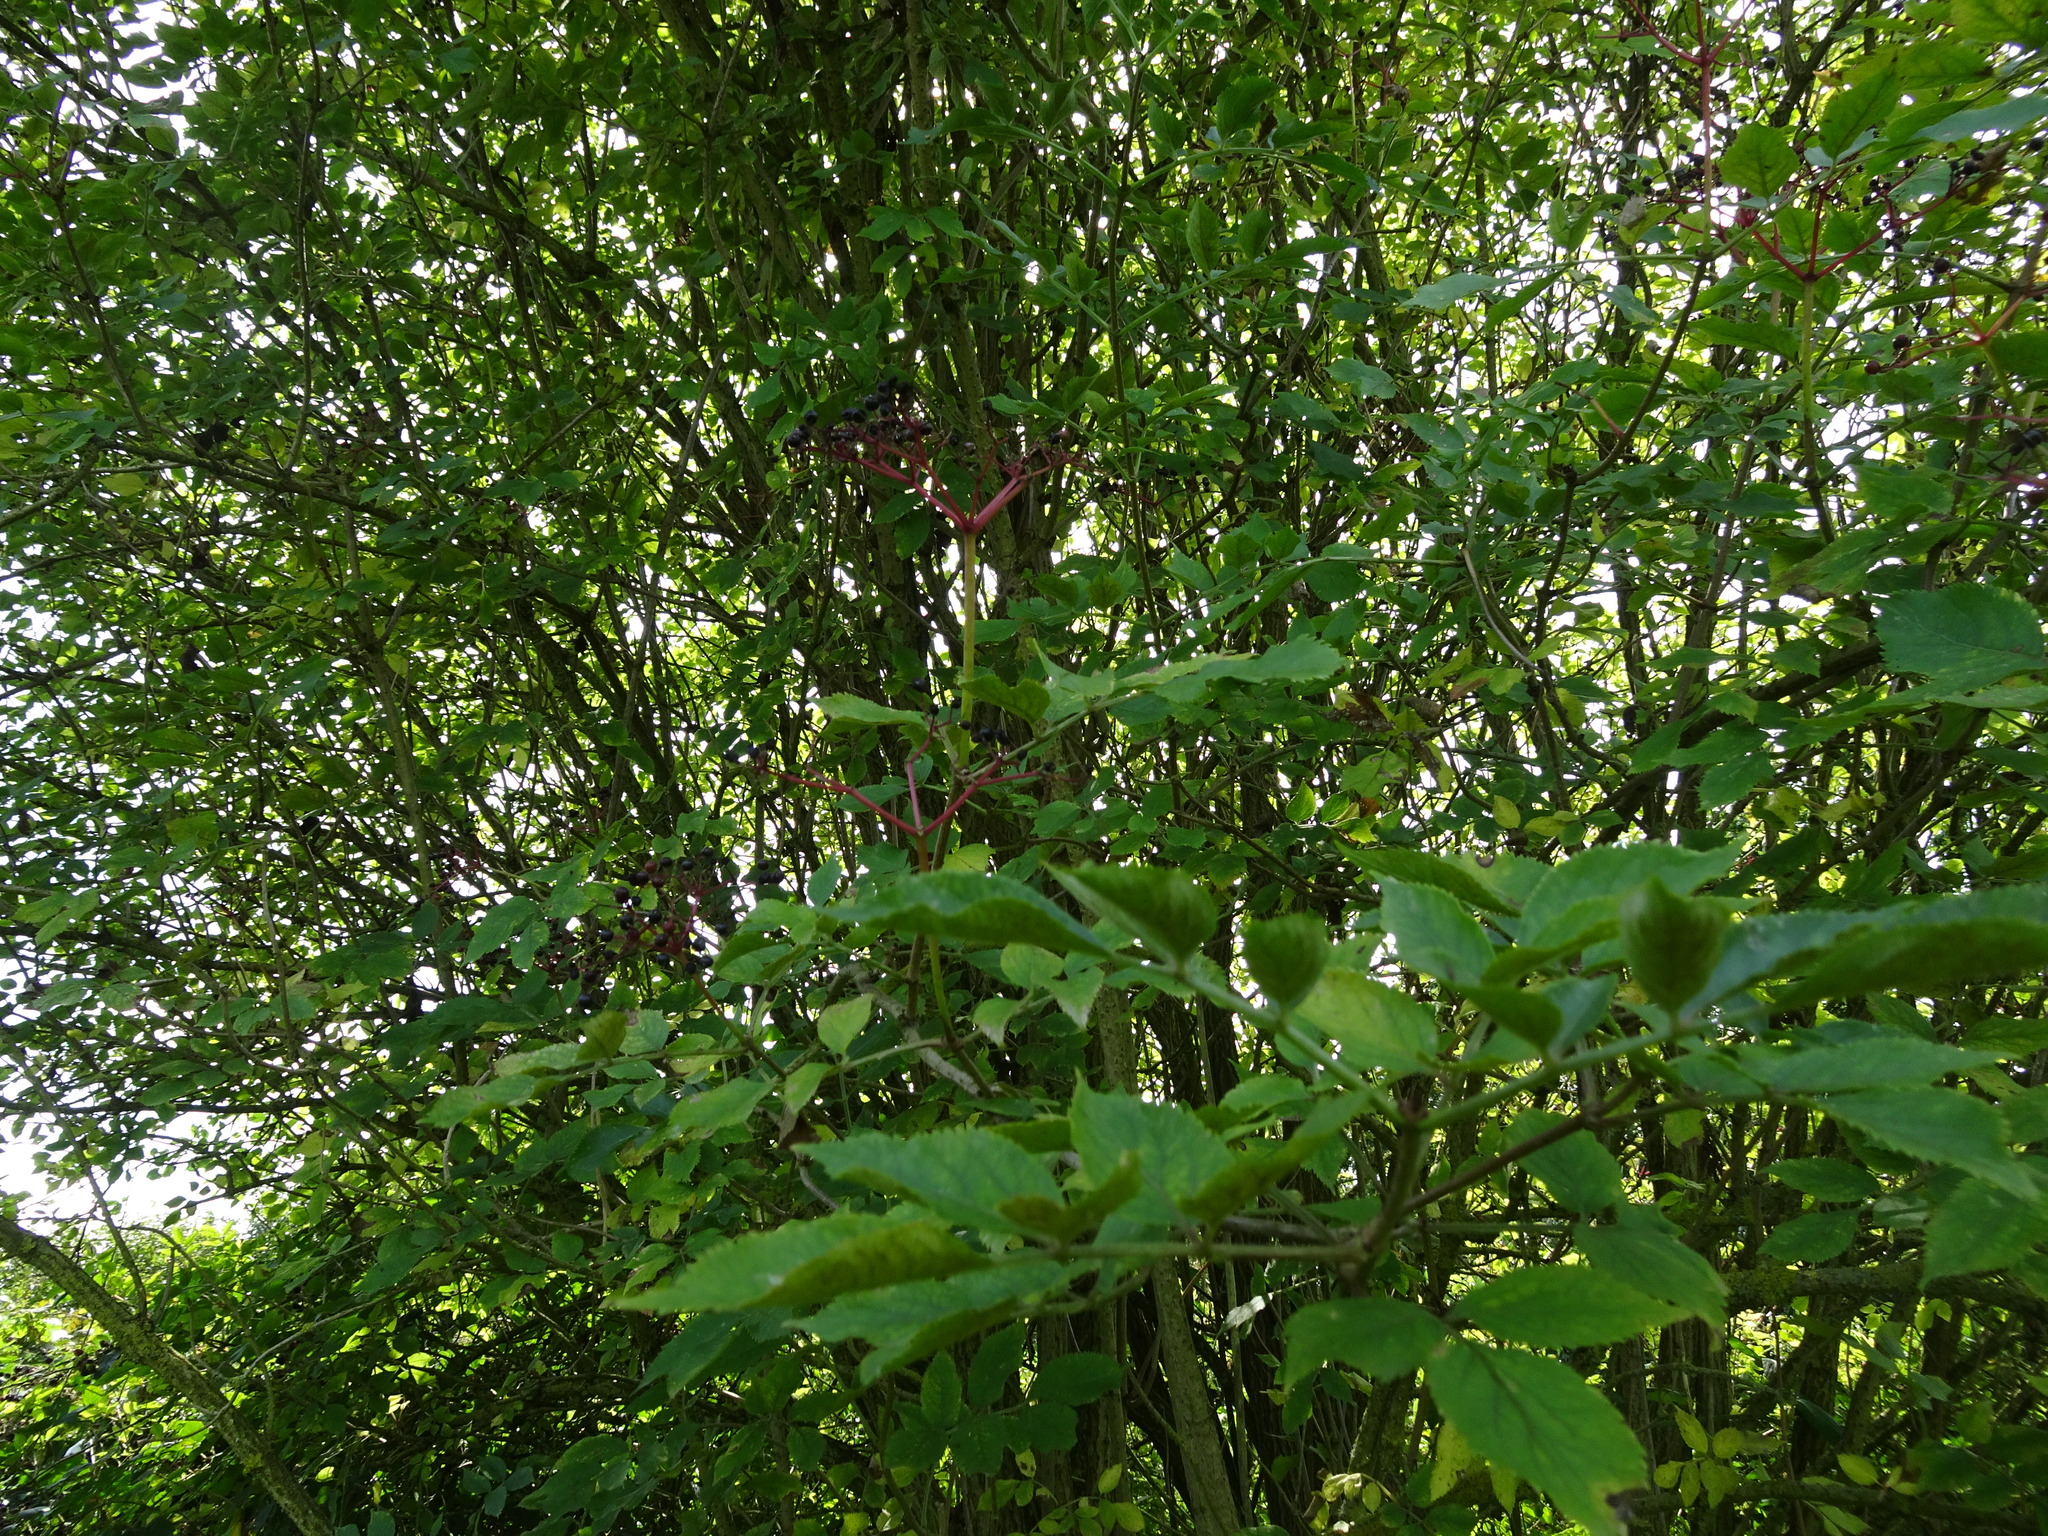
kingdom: Plantae
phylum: Tracheophyta
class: Magnoliopsida
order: Dipsacales
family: Viburnaceae
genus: Sambucus
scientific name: Sambucus nigra
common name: Elder
